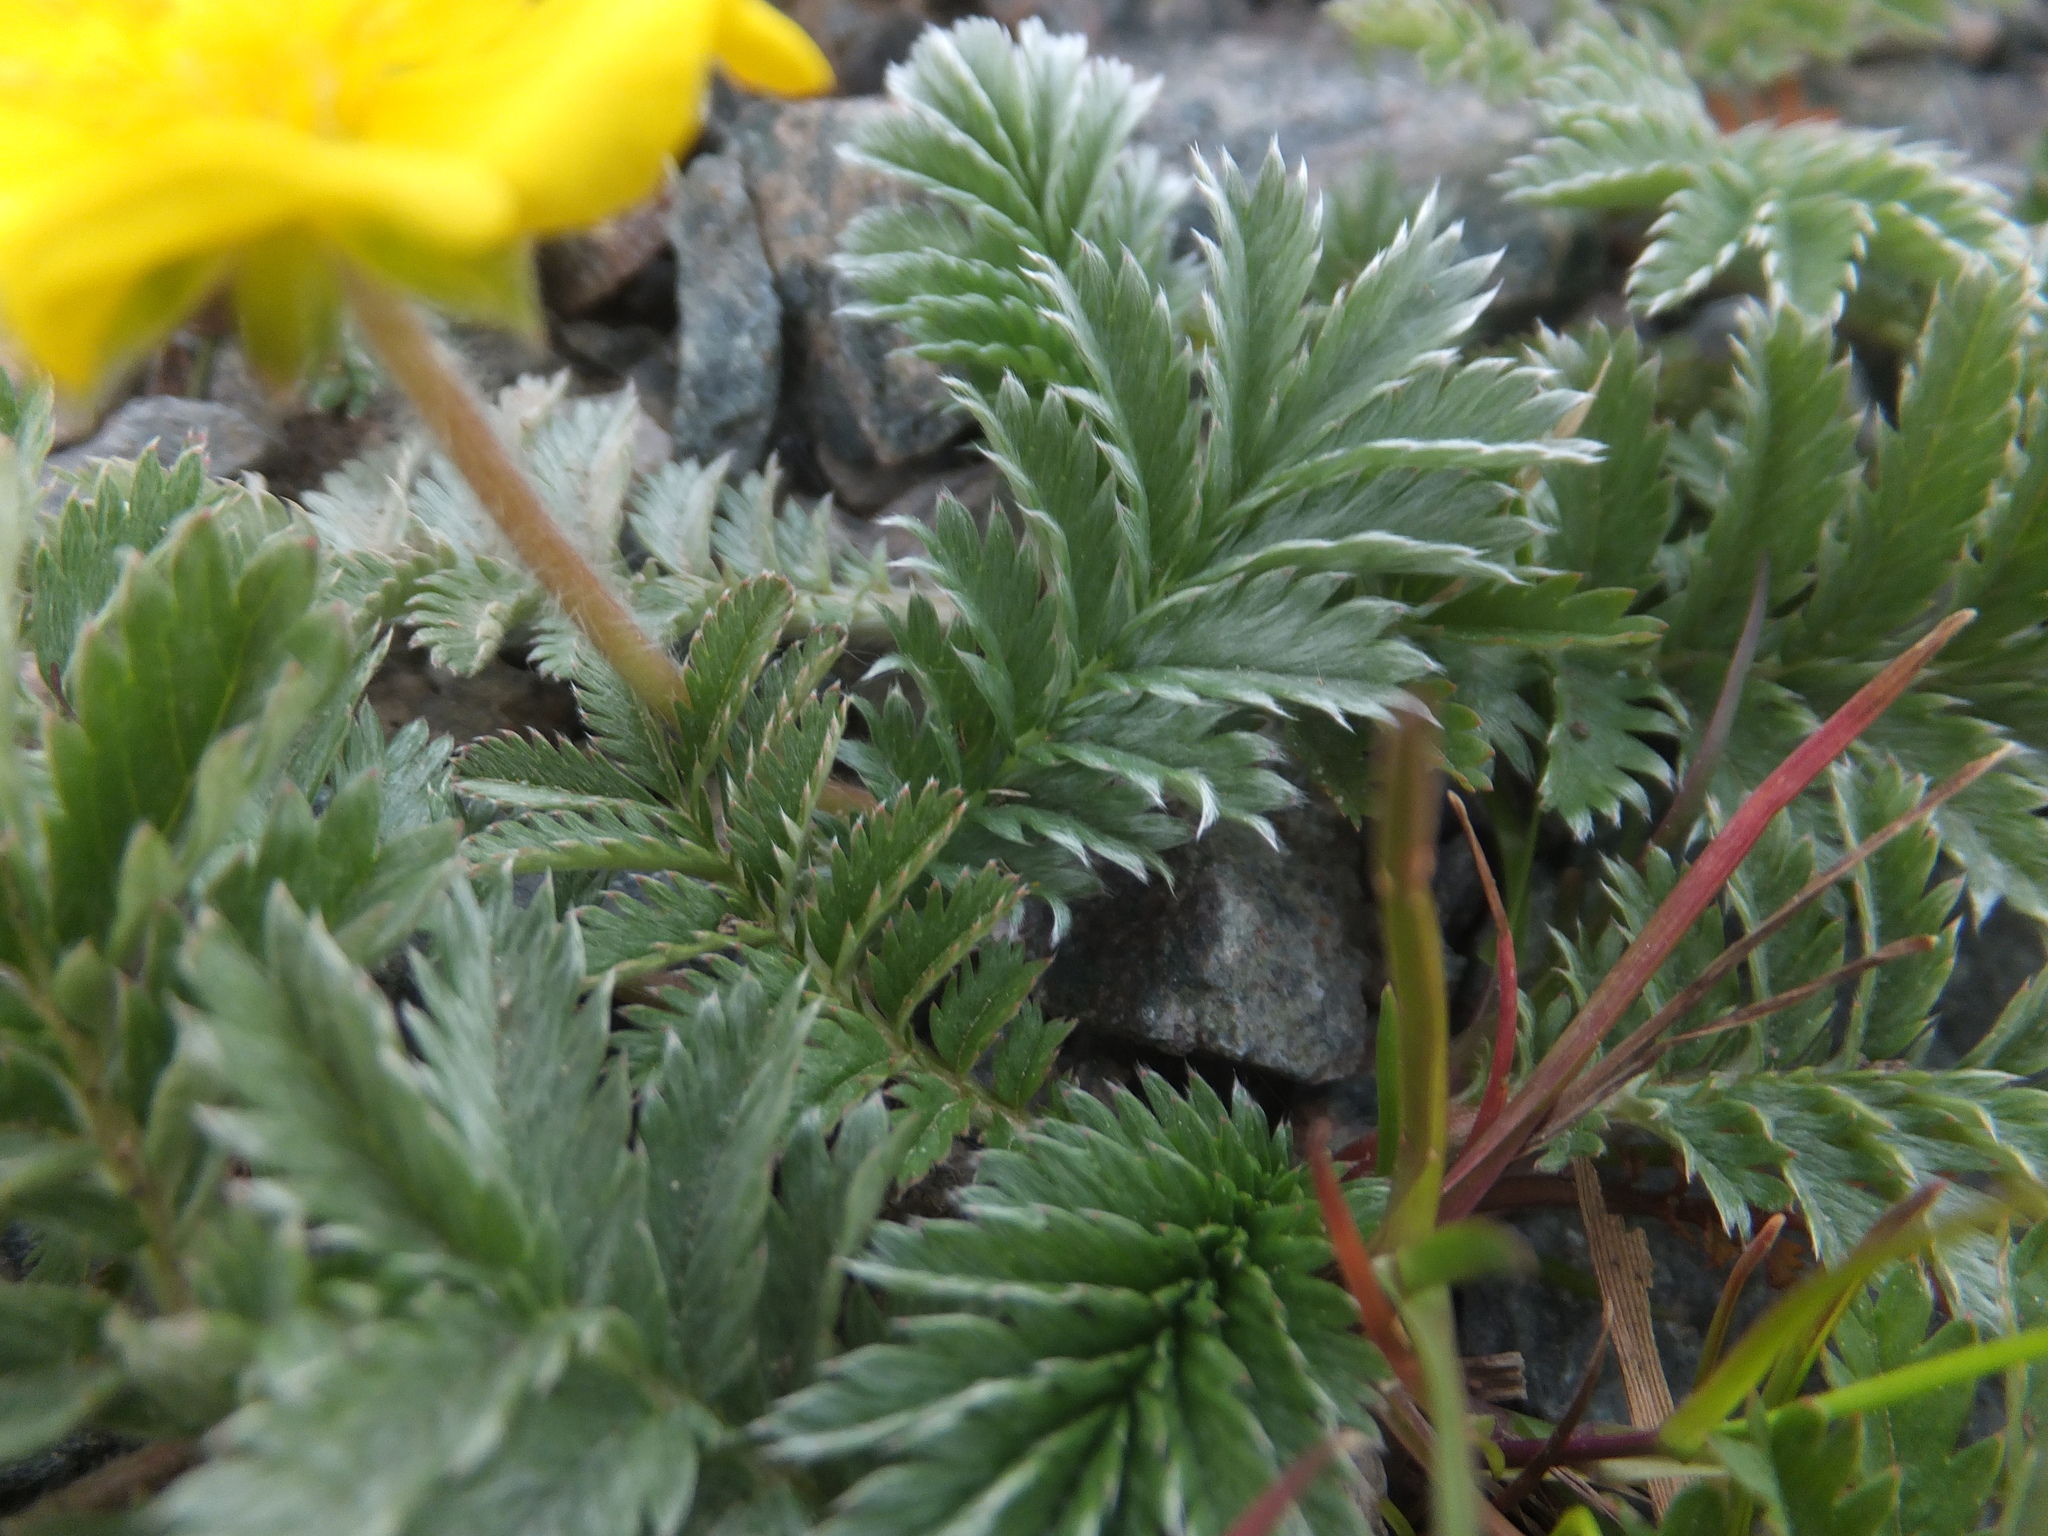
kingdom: Plantae
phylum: Tracheophyta
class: Magnoliopsida
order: Rosales
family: Rosaceae
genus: Argentina
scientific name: Argentina anserina
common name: Common silverweed
